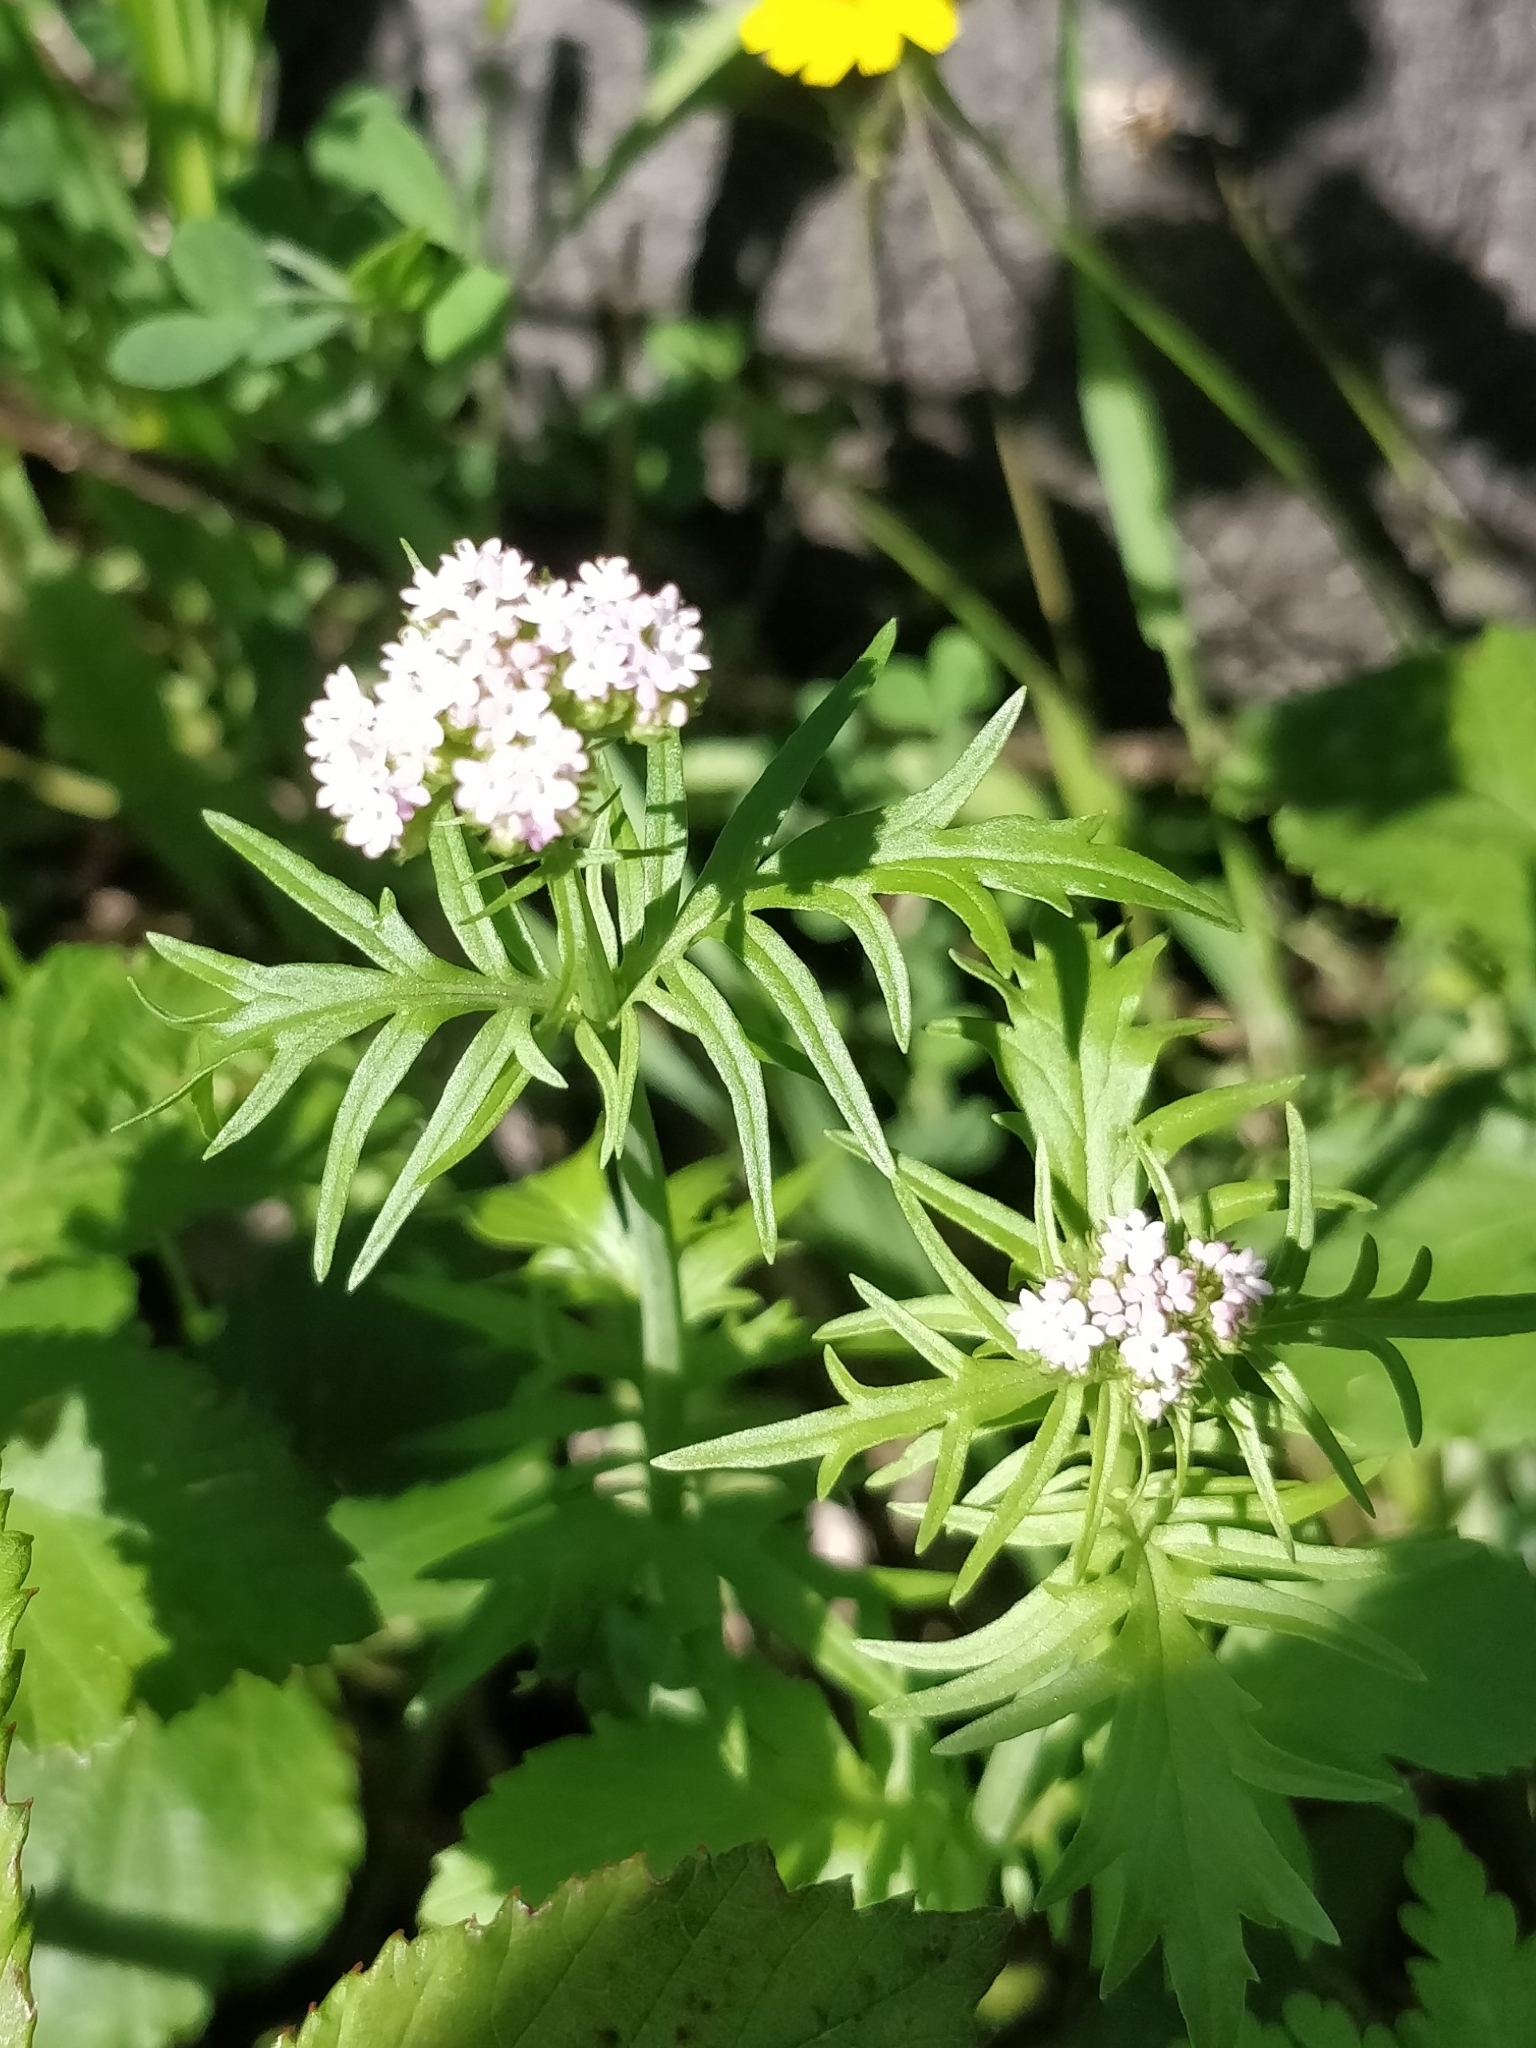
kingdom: Plantae
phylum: Tracheophyta
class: Magnoliopsida
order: Dipsacales
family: Caprifoliaceae
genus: Centranthus
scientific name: Centranthus calcitrapae
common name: Annual valerian
